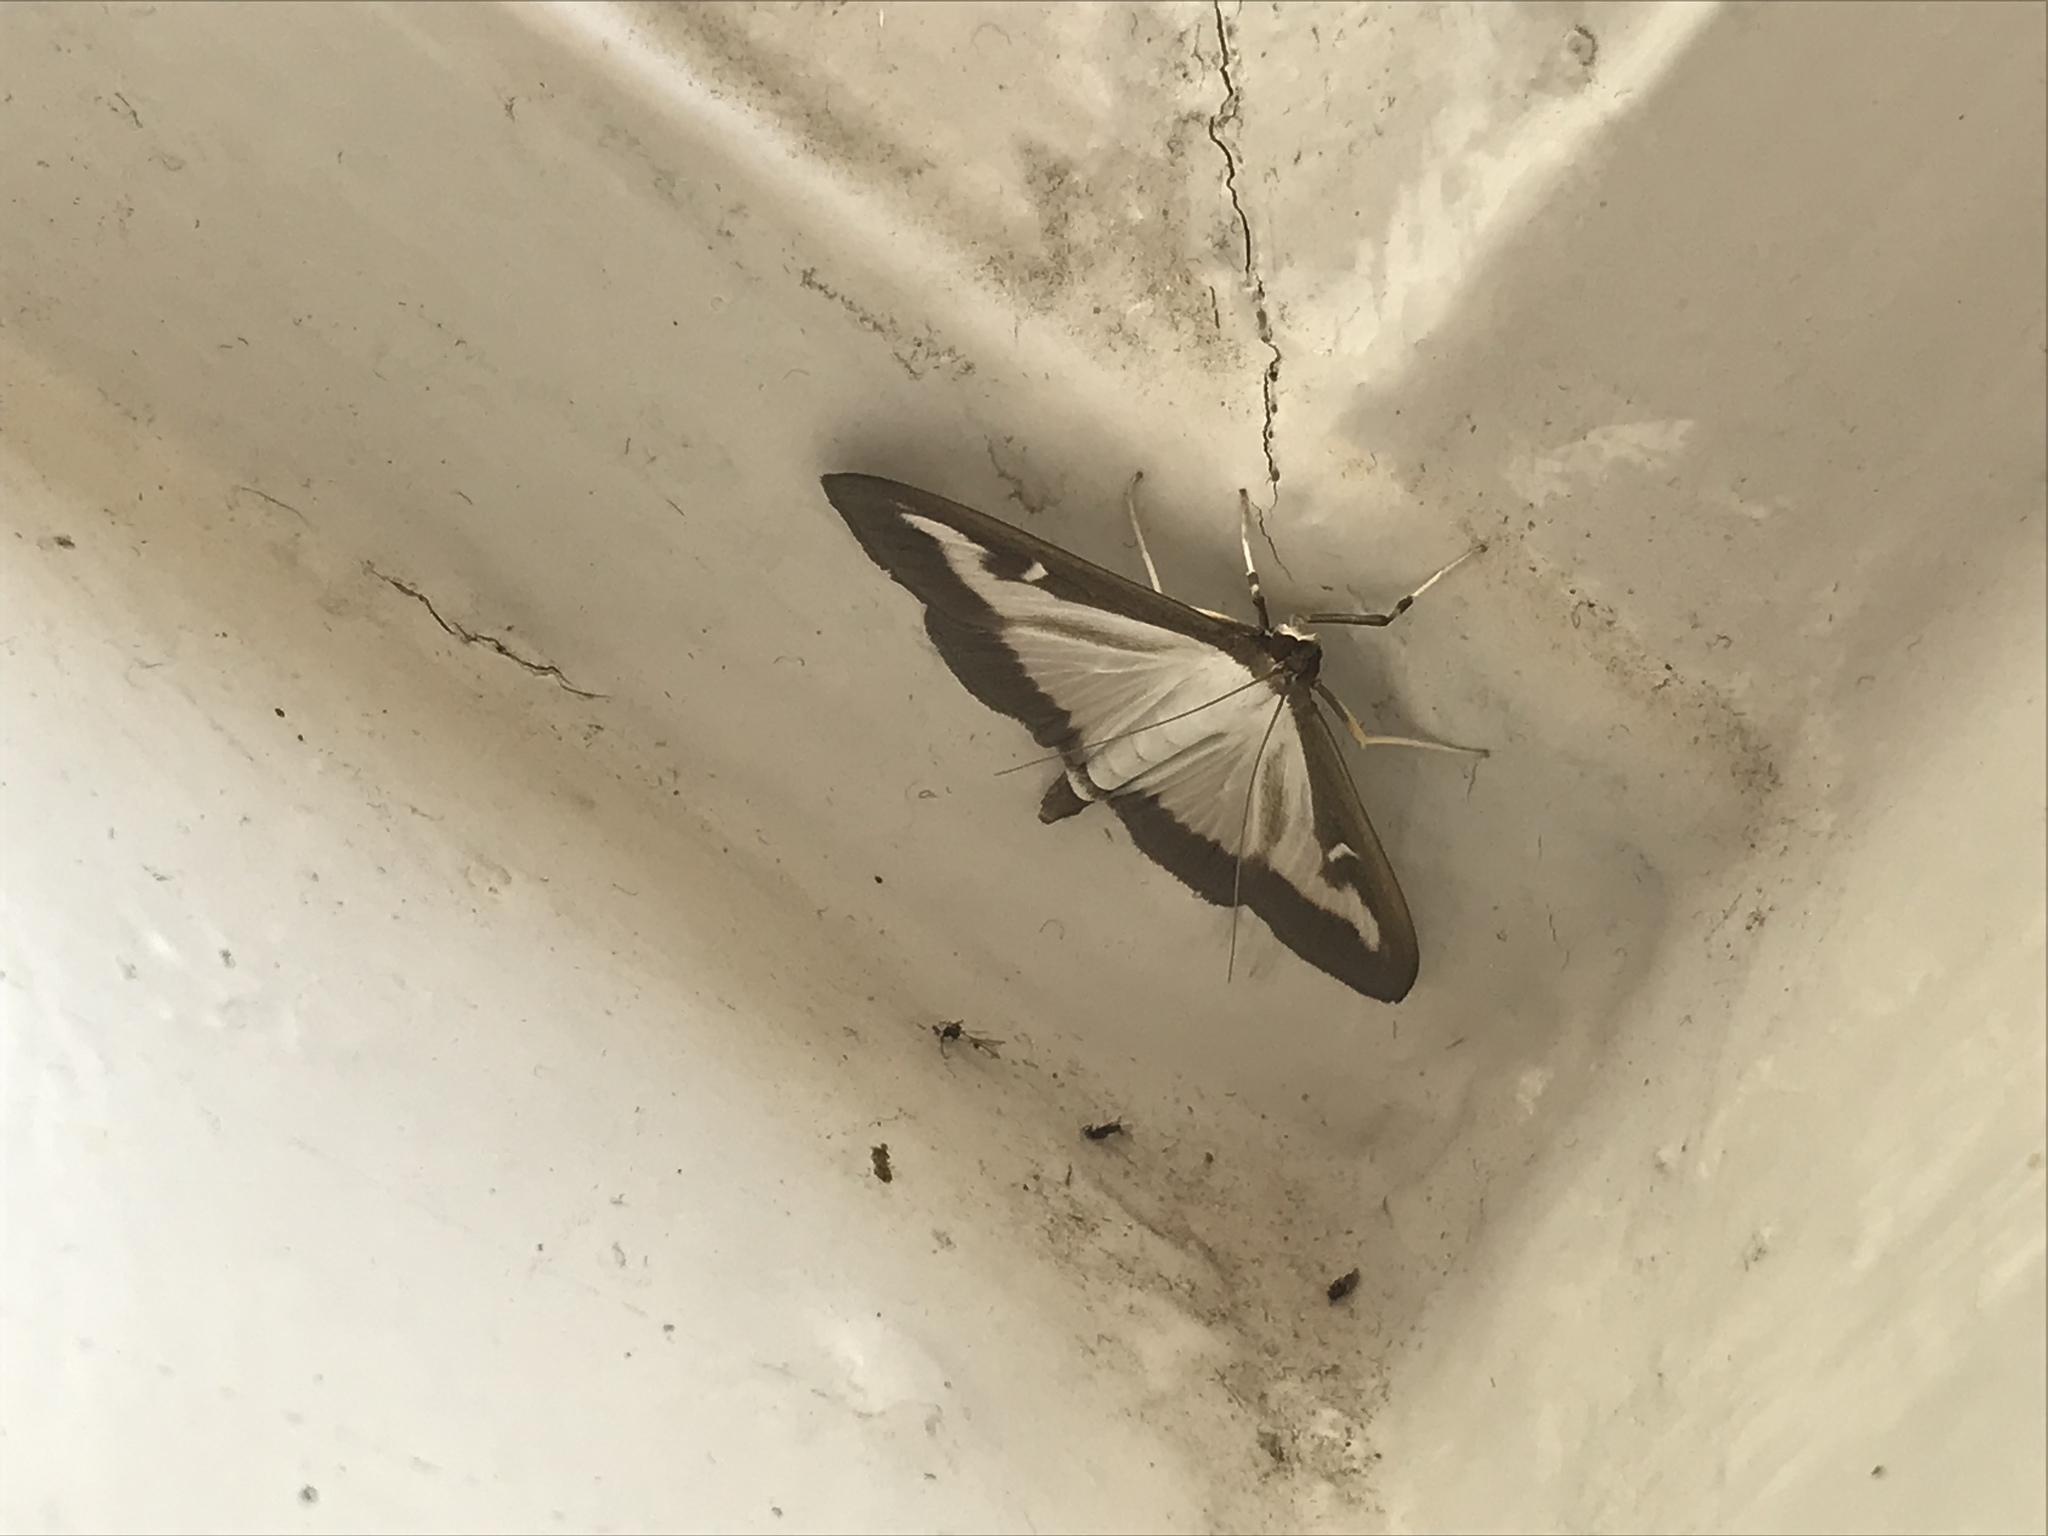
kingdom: Animalia
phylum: Arthropoda
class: Insecta
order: Lepidoptera
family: Crambidae
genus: Cydalima
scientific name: Cydalima perspectalis
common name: Box tree moth
